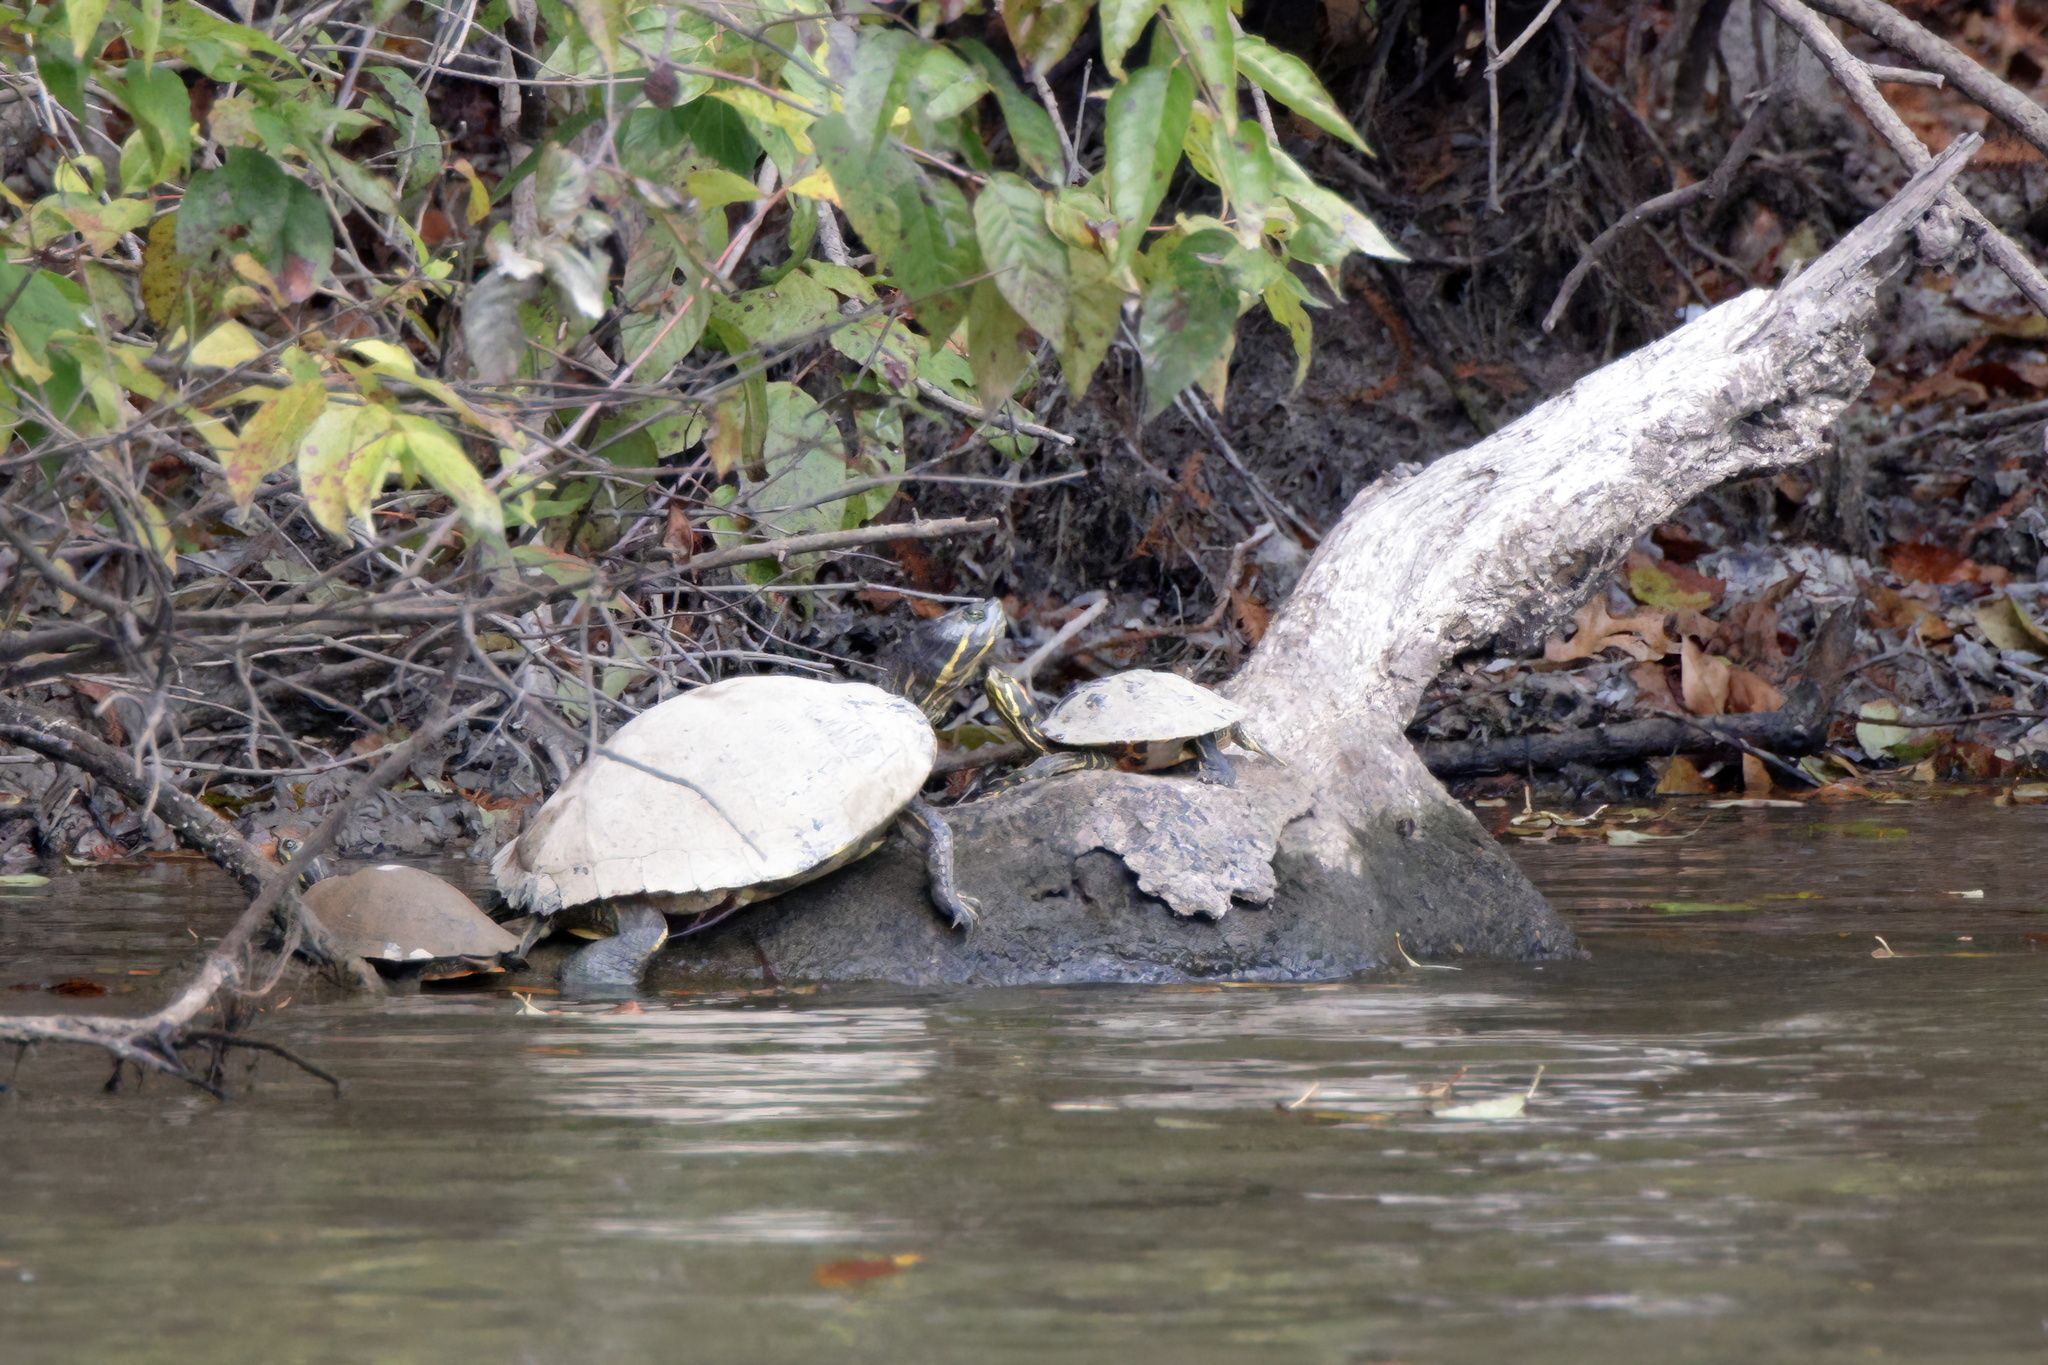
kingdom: Animalia
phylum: Chordata
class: Testudines
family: Emydidae
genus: Pseudemys
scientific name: Pseudemys concinna
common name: Eastern river cooter
